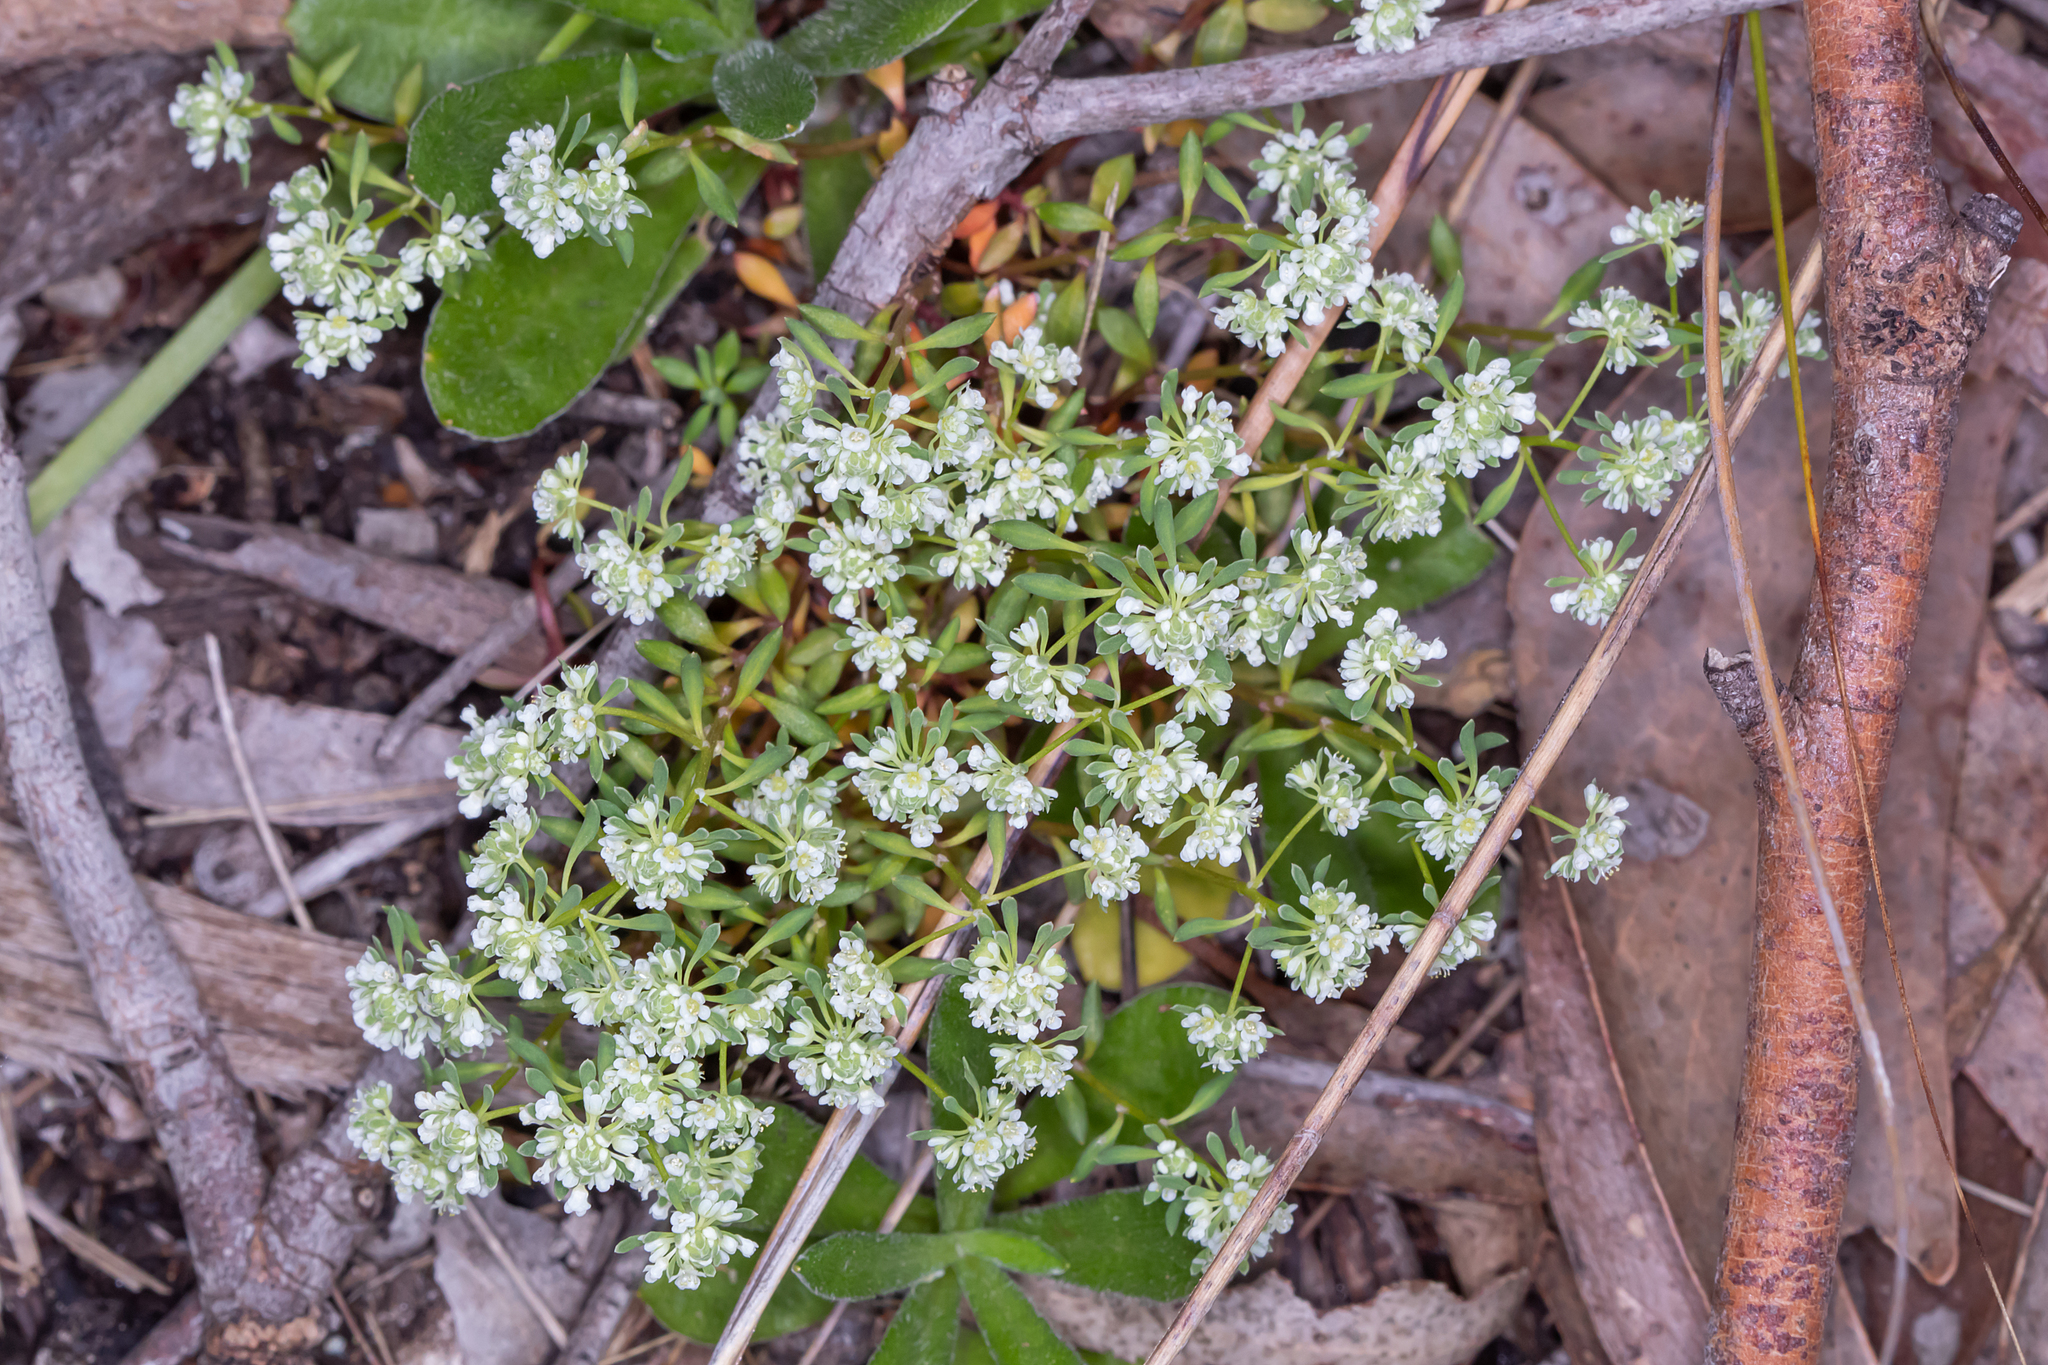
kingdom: Plantae
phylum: Tracheophyta
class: Magnoliopsida
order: Malpighiales
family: Phyllanthaceae
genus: Poranthera
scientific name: Poranthera microphylla
